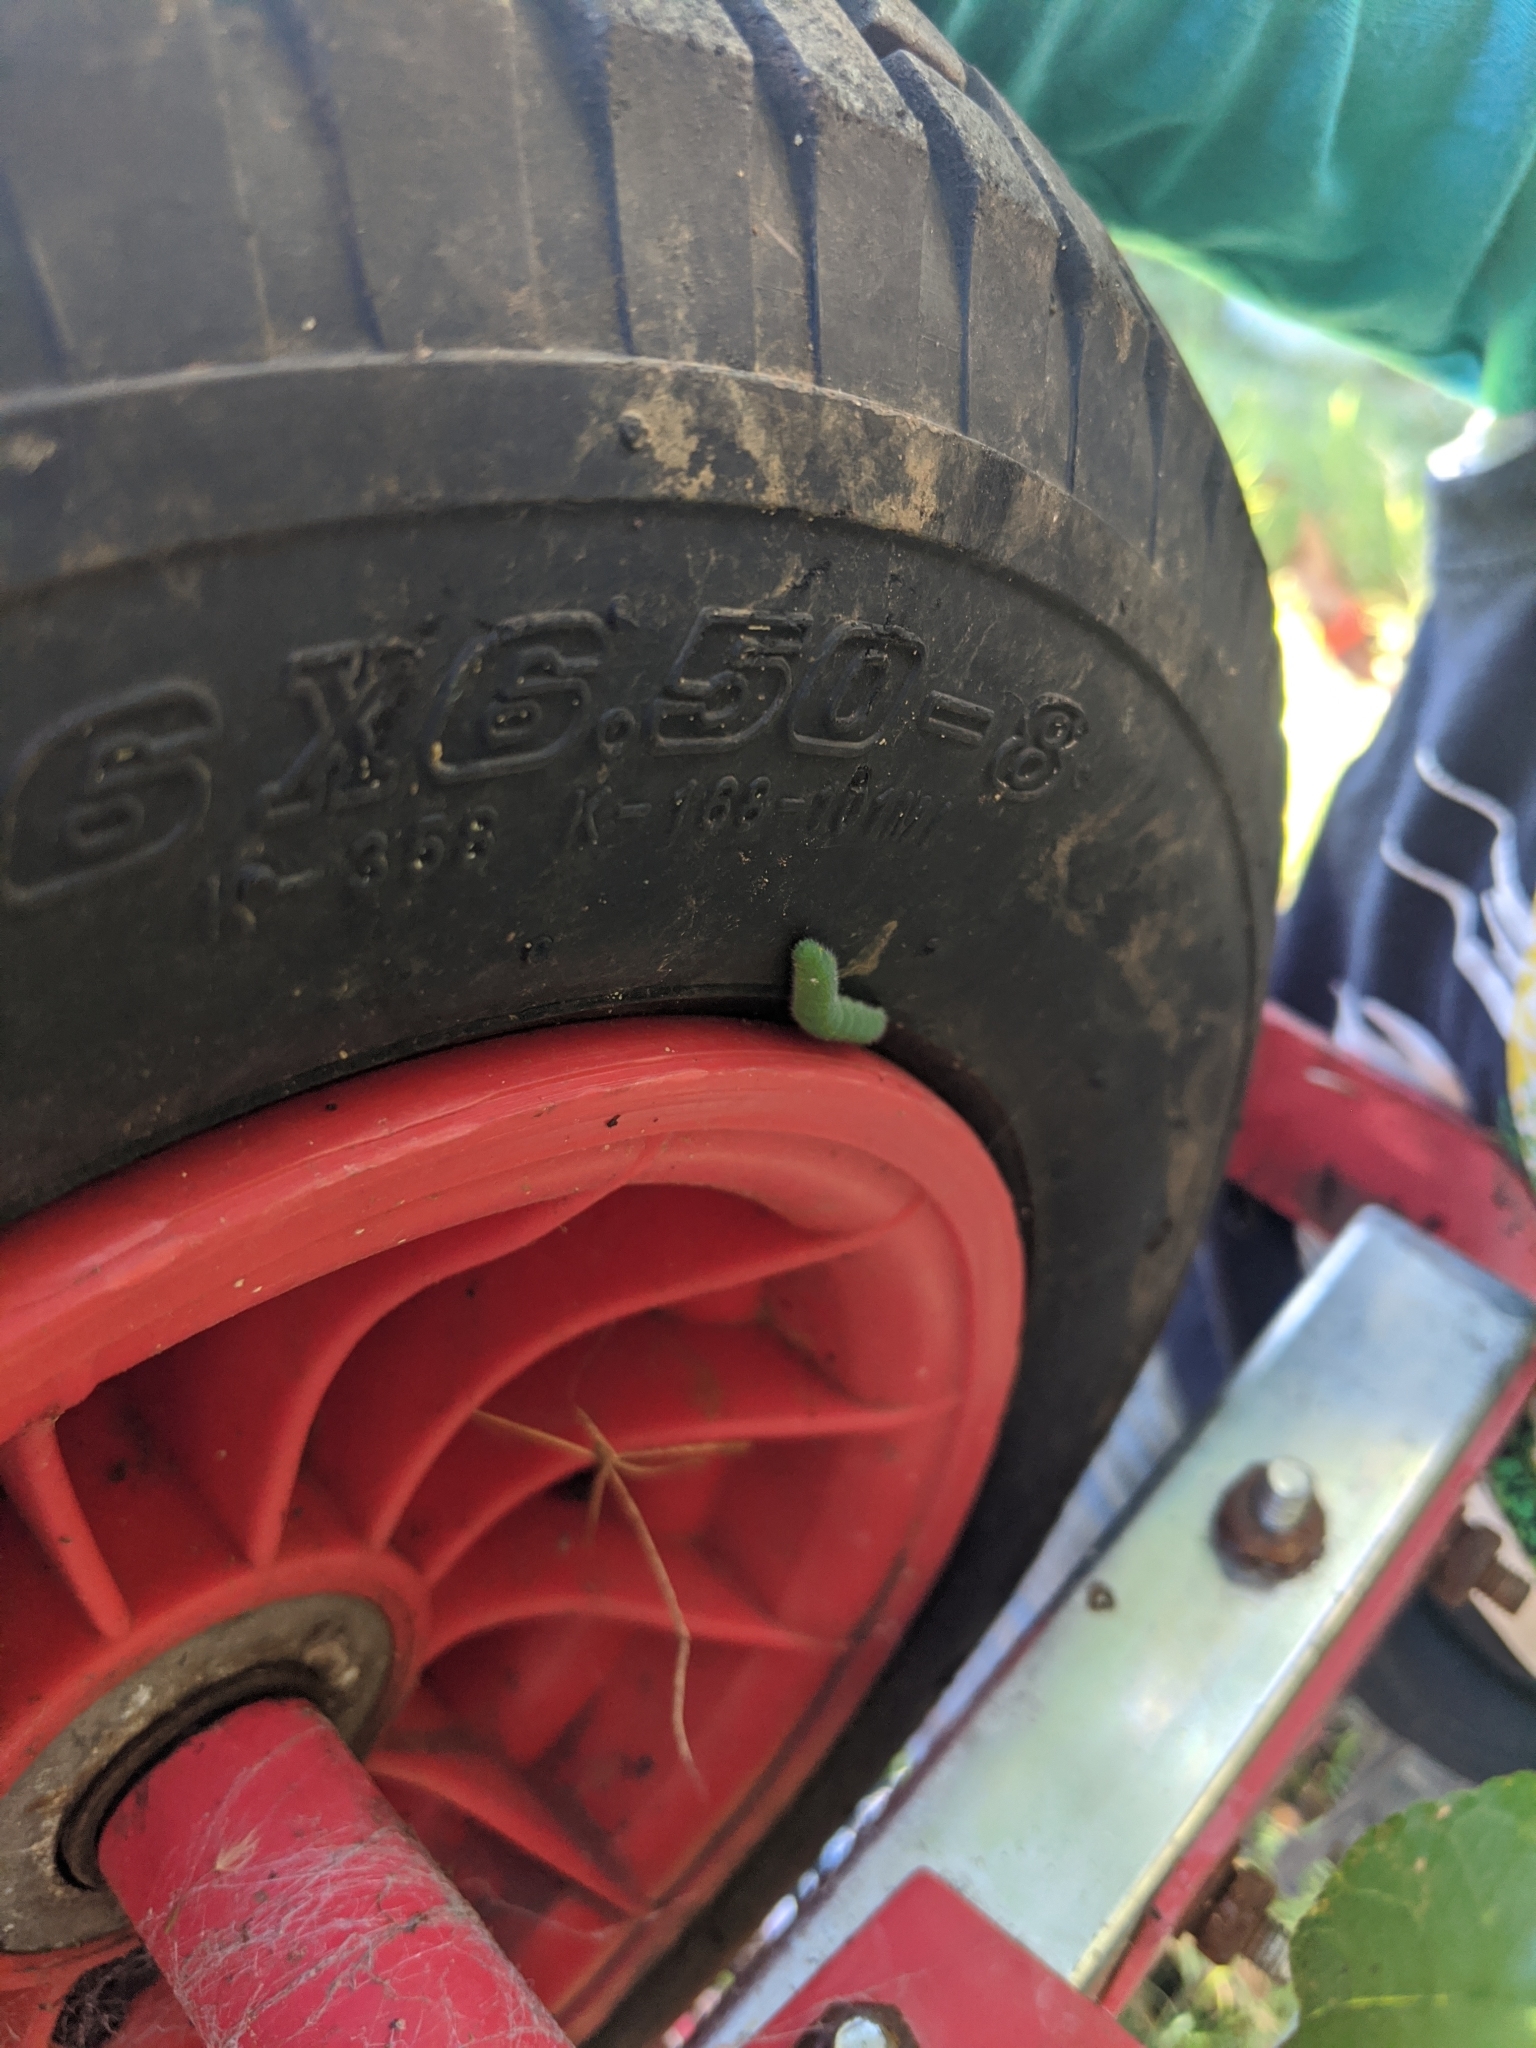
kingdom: Animalia
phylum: Arthropoda
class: Insecta
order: Lepidoptera
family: Pieridae
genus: Pieris
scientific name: Pieris rapae
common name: Small white
